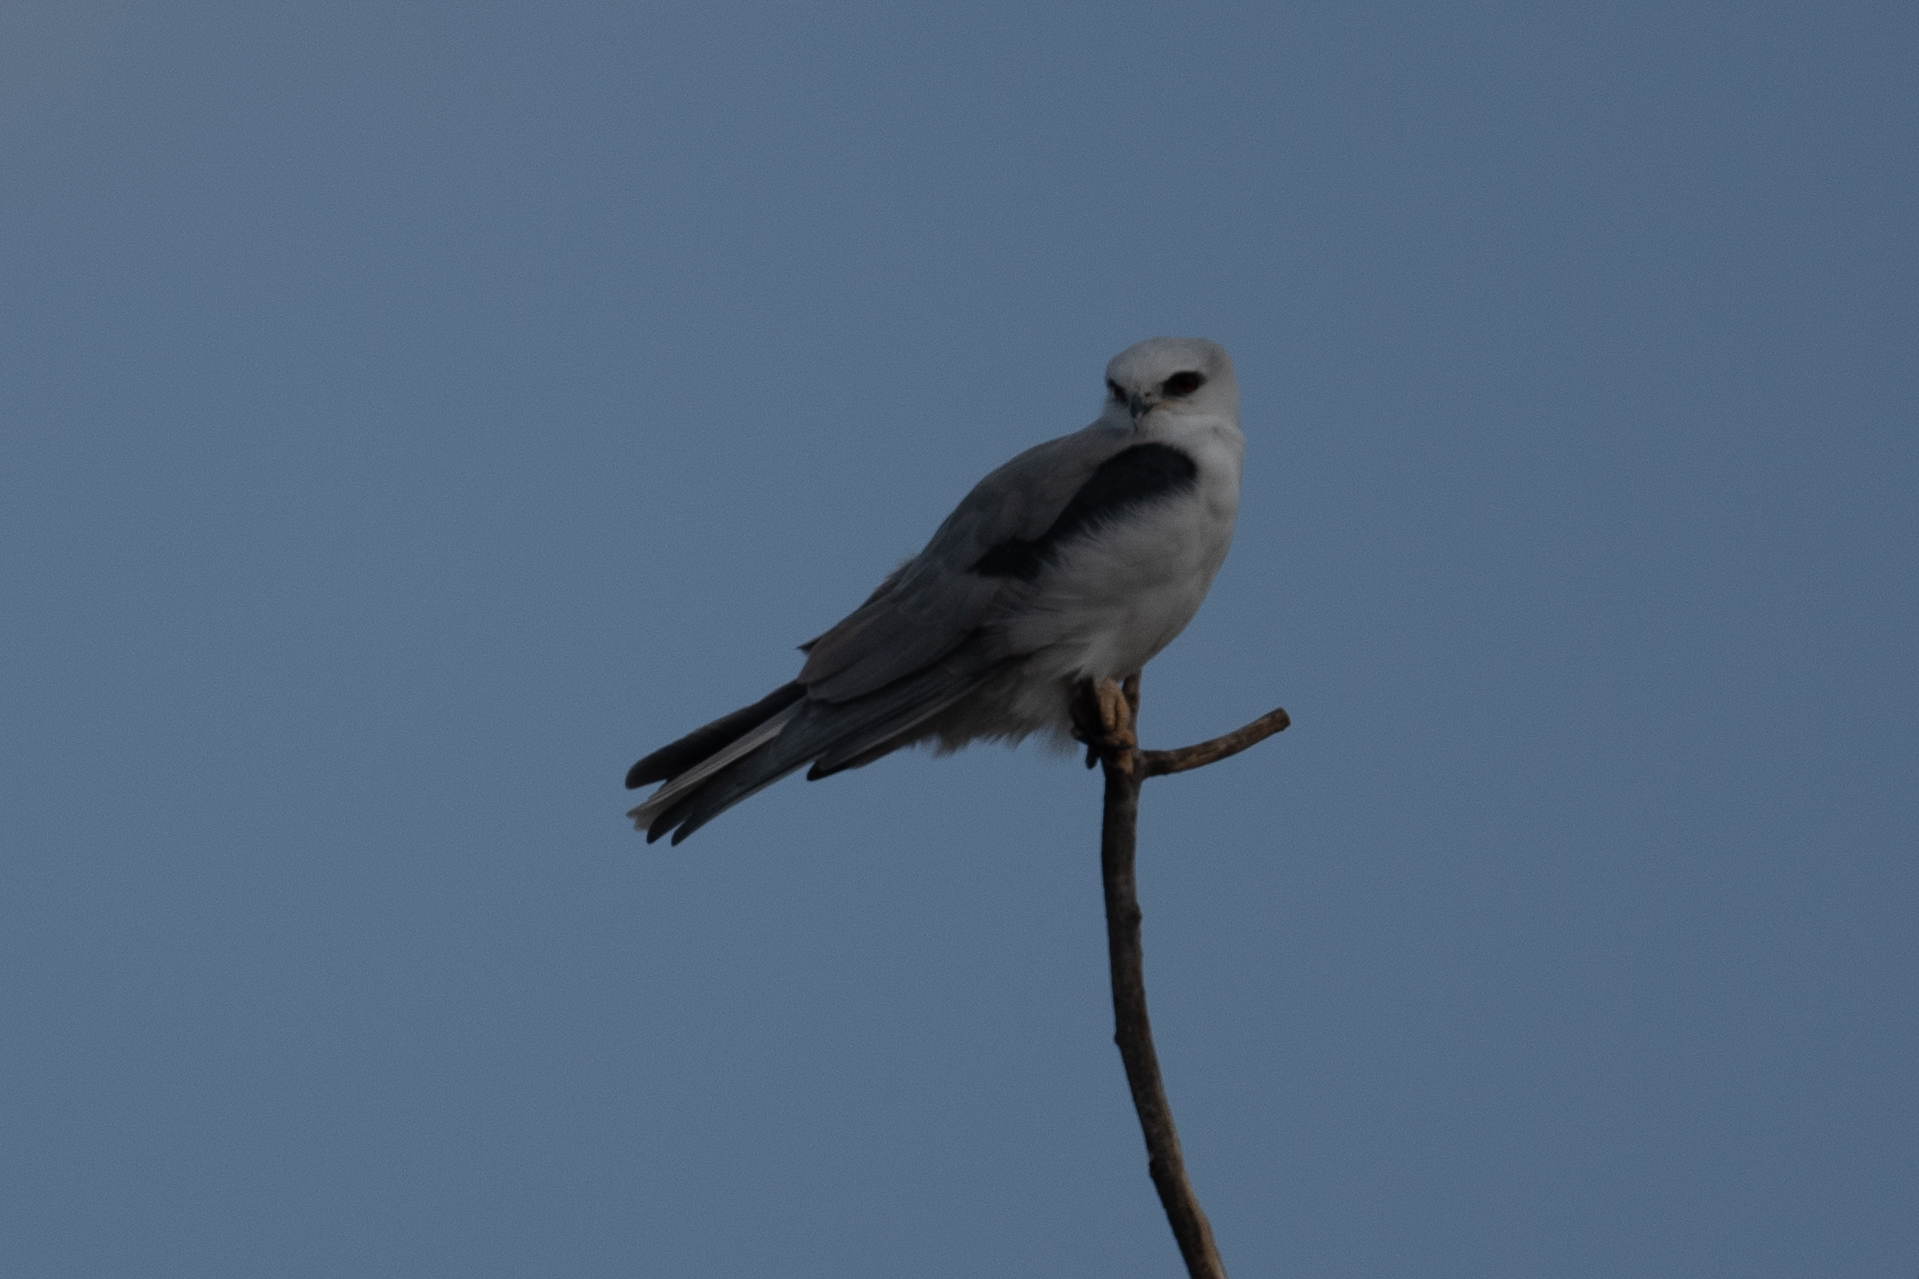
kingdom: Animalia
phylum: Chordata
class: Aves
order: Accipitriformes
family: Accipitridae
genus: Elanus
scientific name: Elanus leucurus
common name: White-tailed kite
